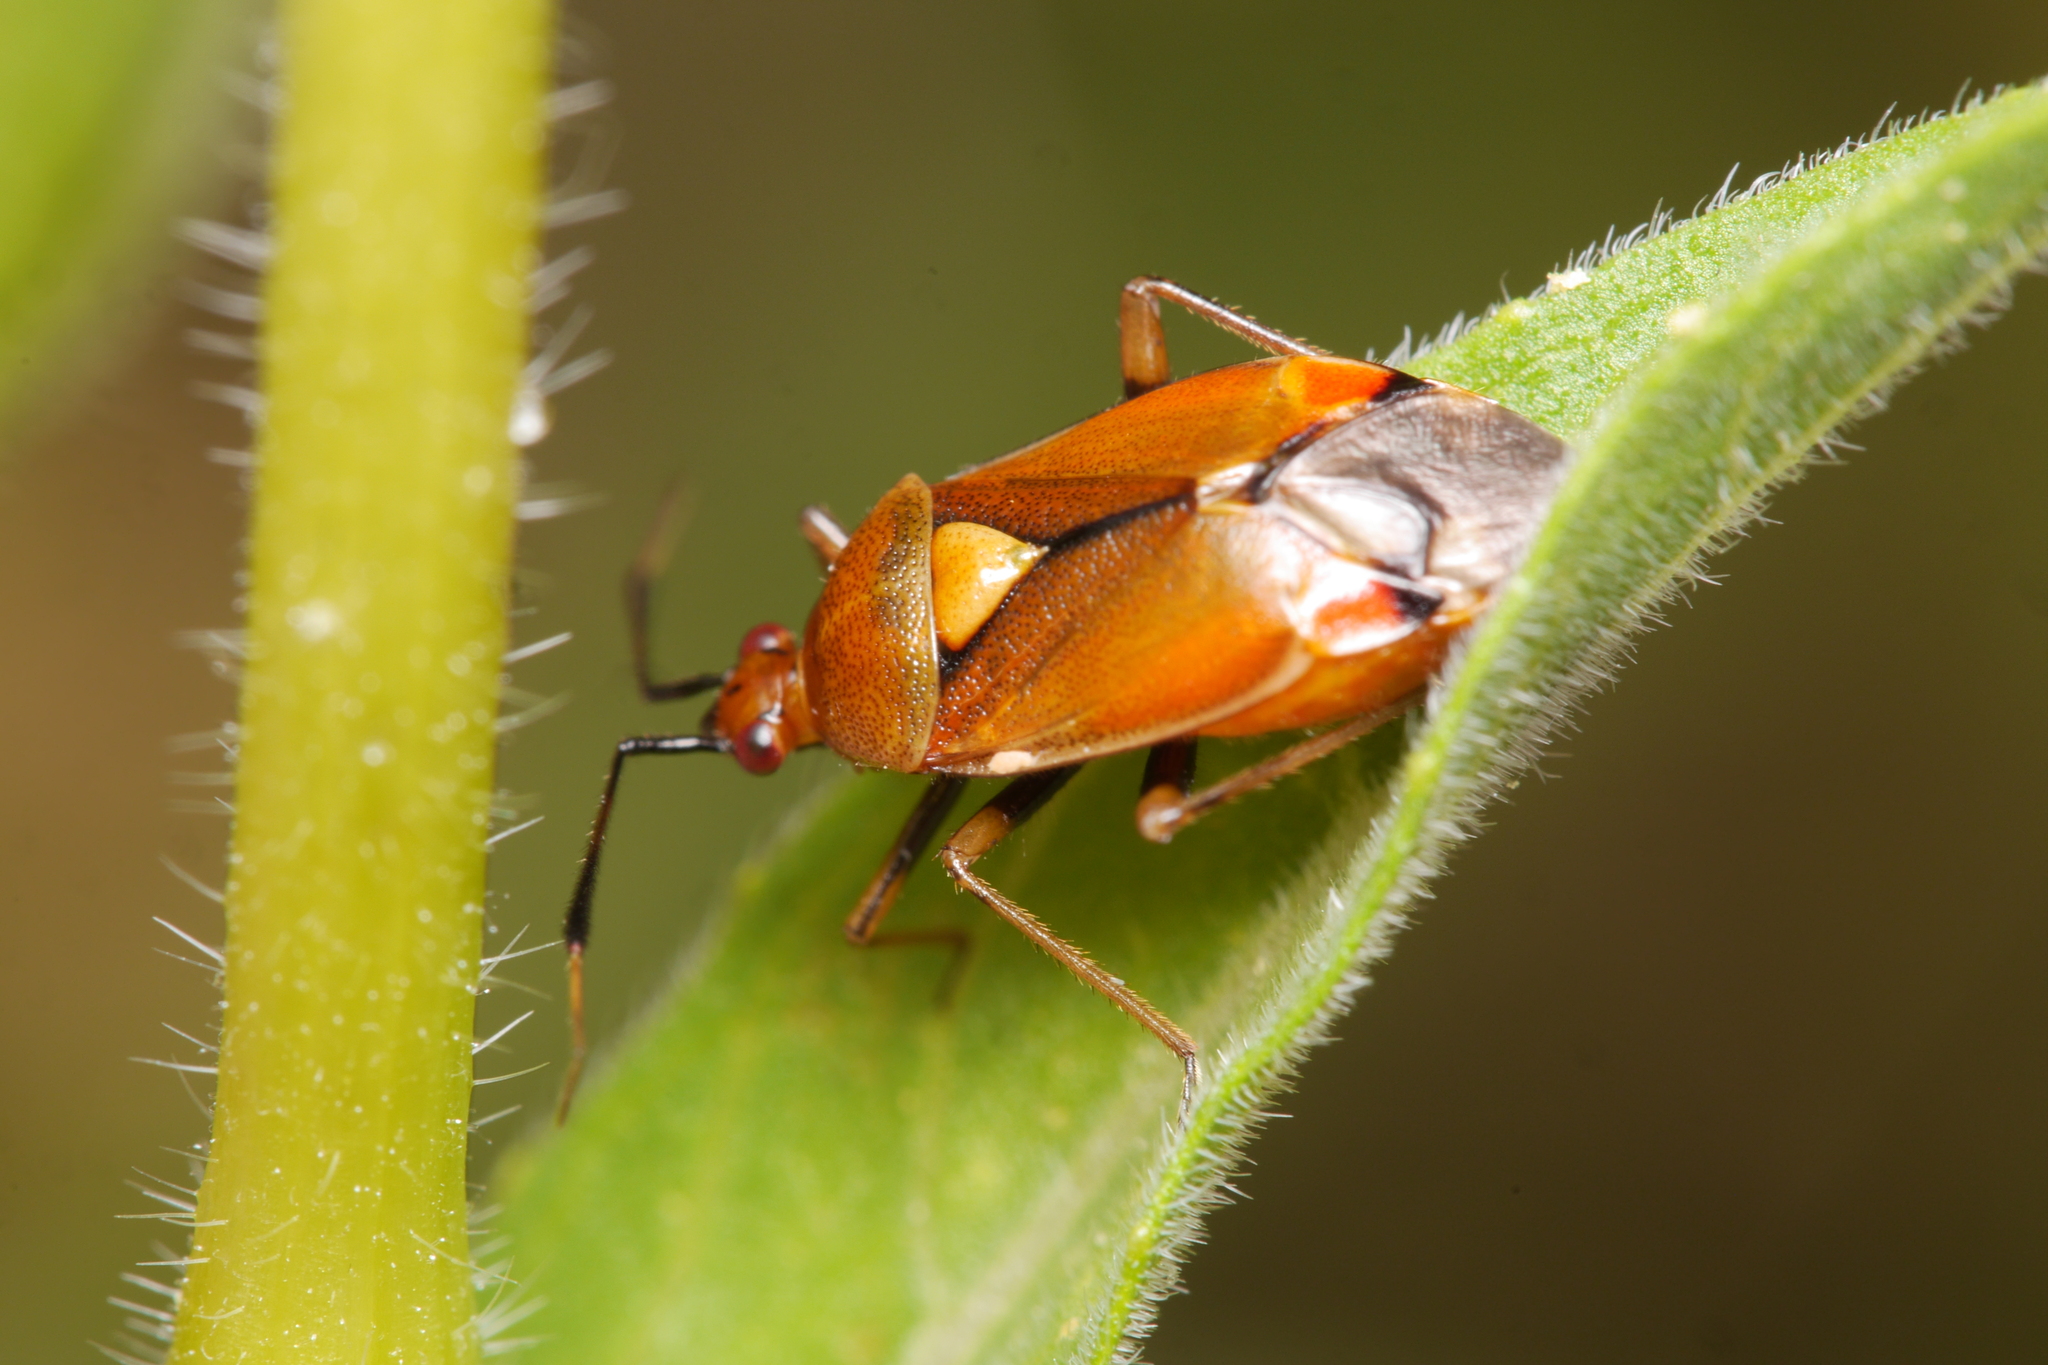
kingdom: Animalia
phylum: Arthropoda
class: Insecta
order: Hemiptera
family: Miridae
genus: Deraeocoris
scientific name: Deraeocoris ruber
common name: Plant bug
